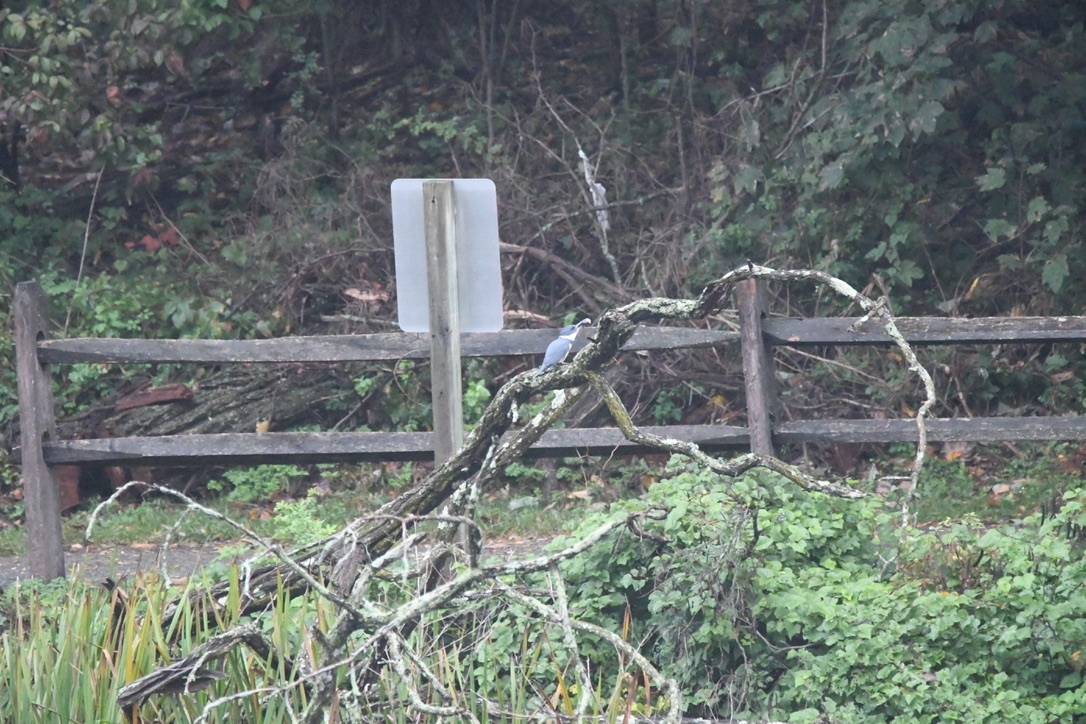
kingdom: Animalia
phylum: Chordata
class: Aves
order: Coraciiformes
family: Alcedinidae
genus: Megaceryle
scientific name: Megaceryle alcyon
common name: Belted kingfisher
